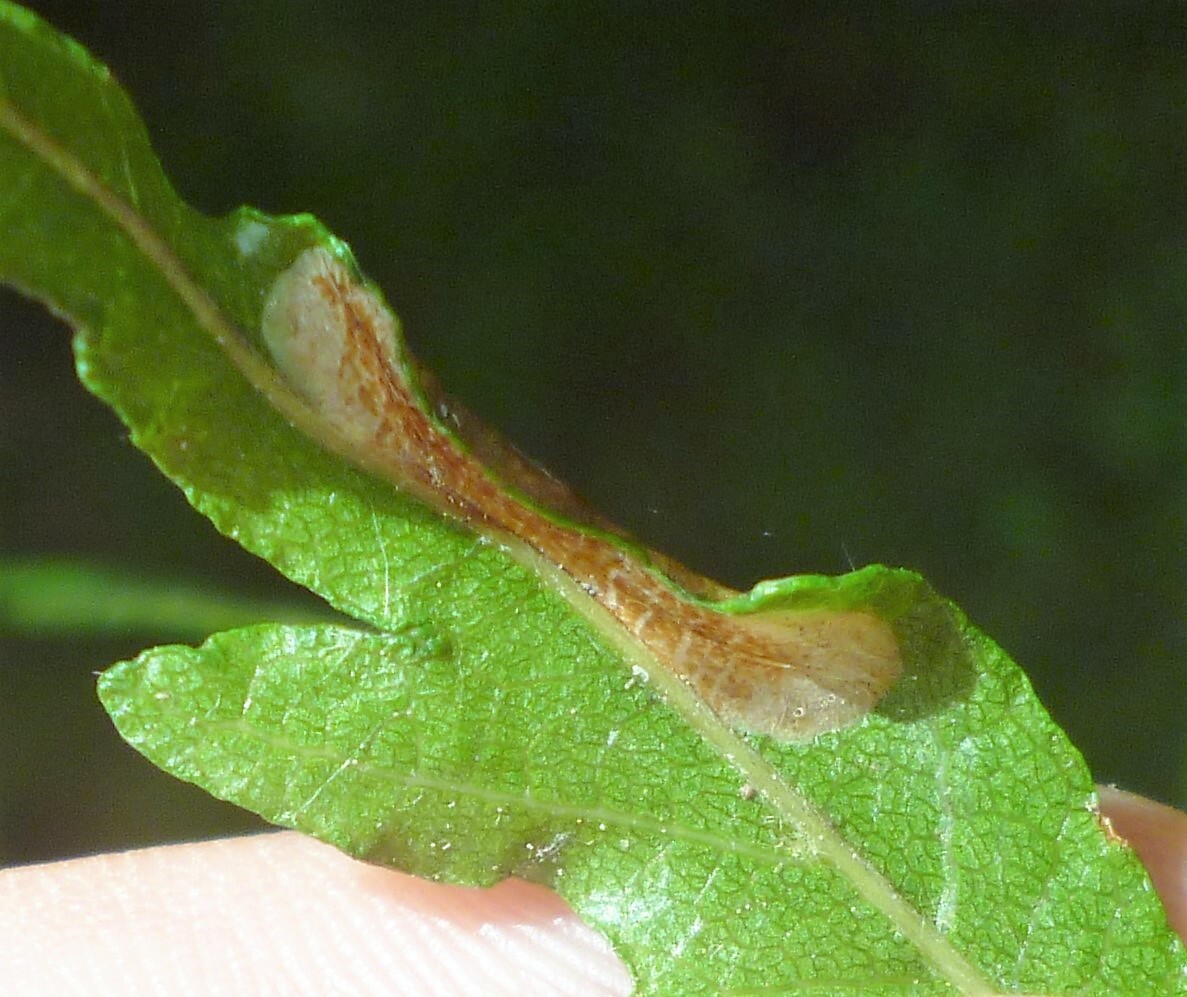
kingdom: Animalia
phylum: Arthropoda
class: Insecta
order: Lepidoptera
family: Gracillariidae
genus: Phyllonorycter
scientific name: Phyllonorycter maestingella
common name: Beech midget
